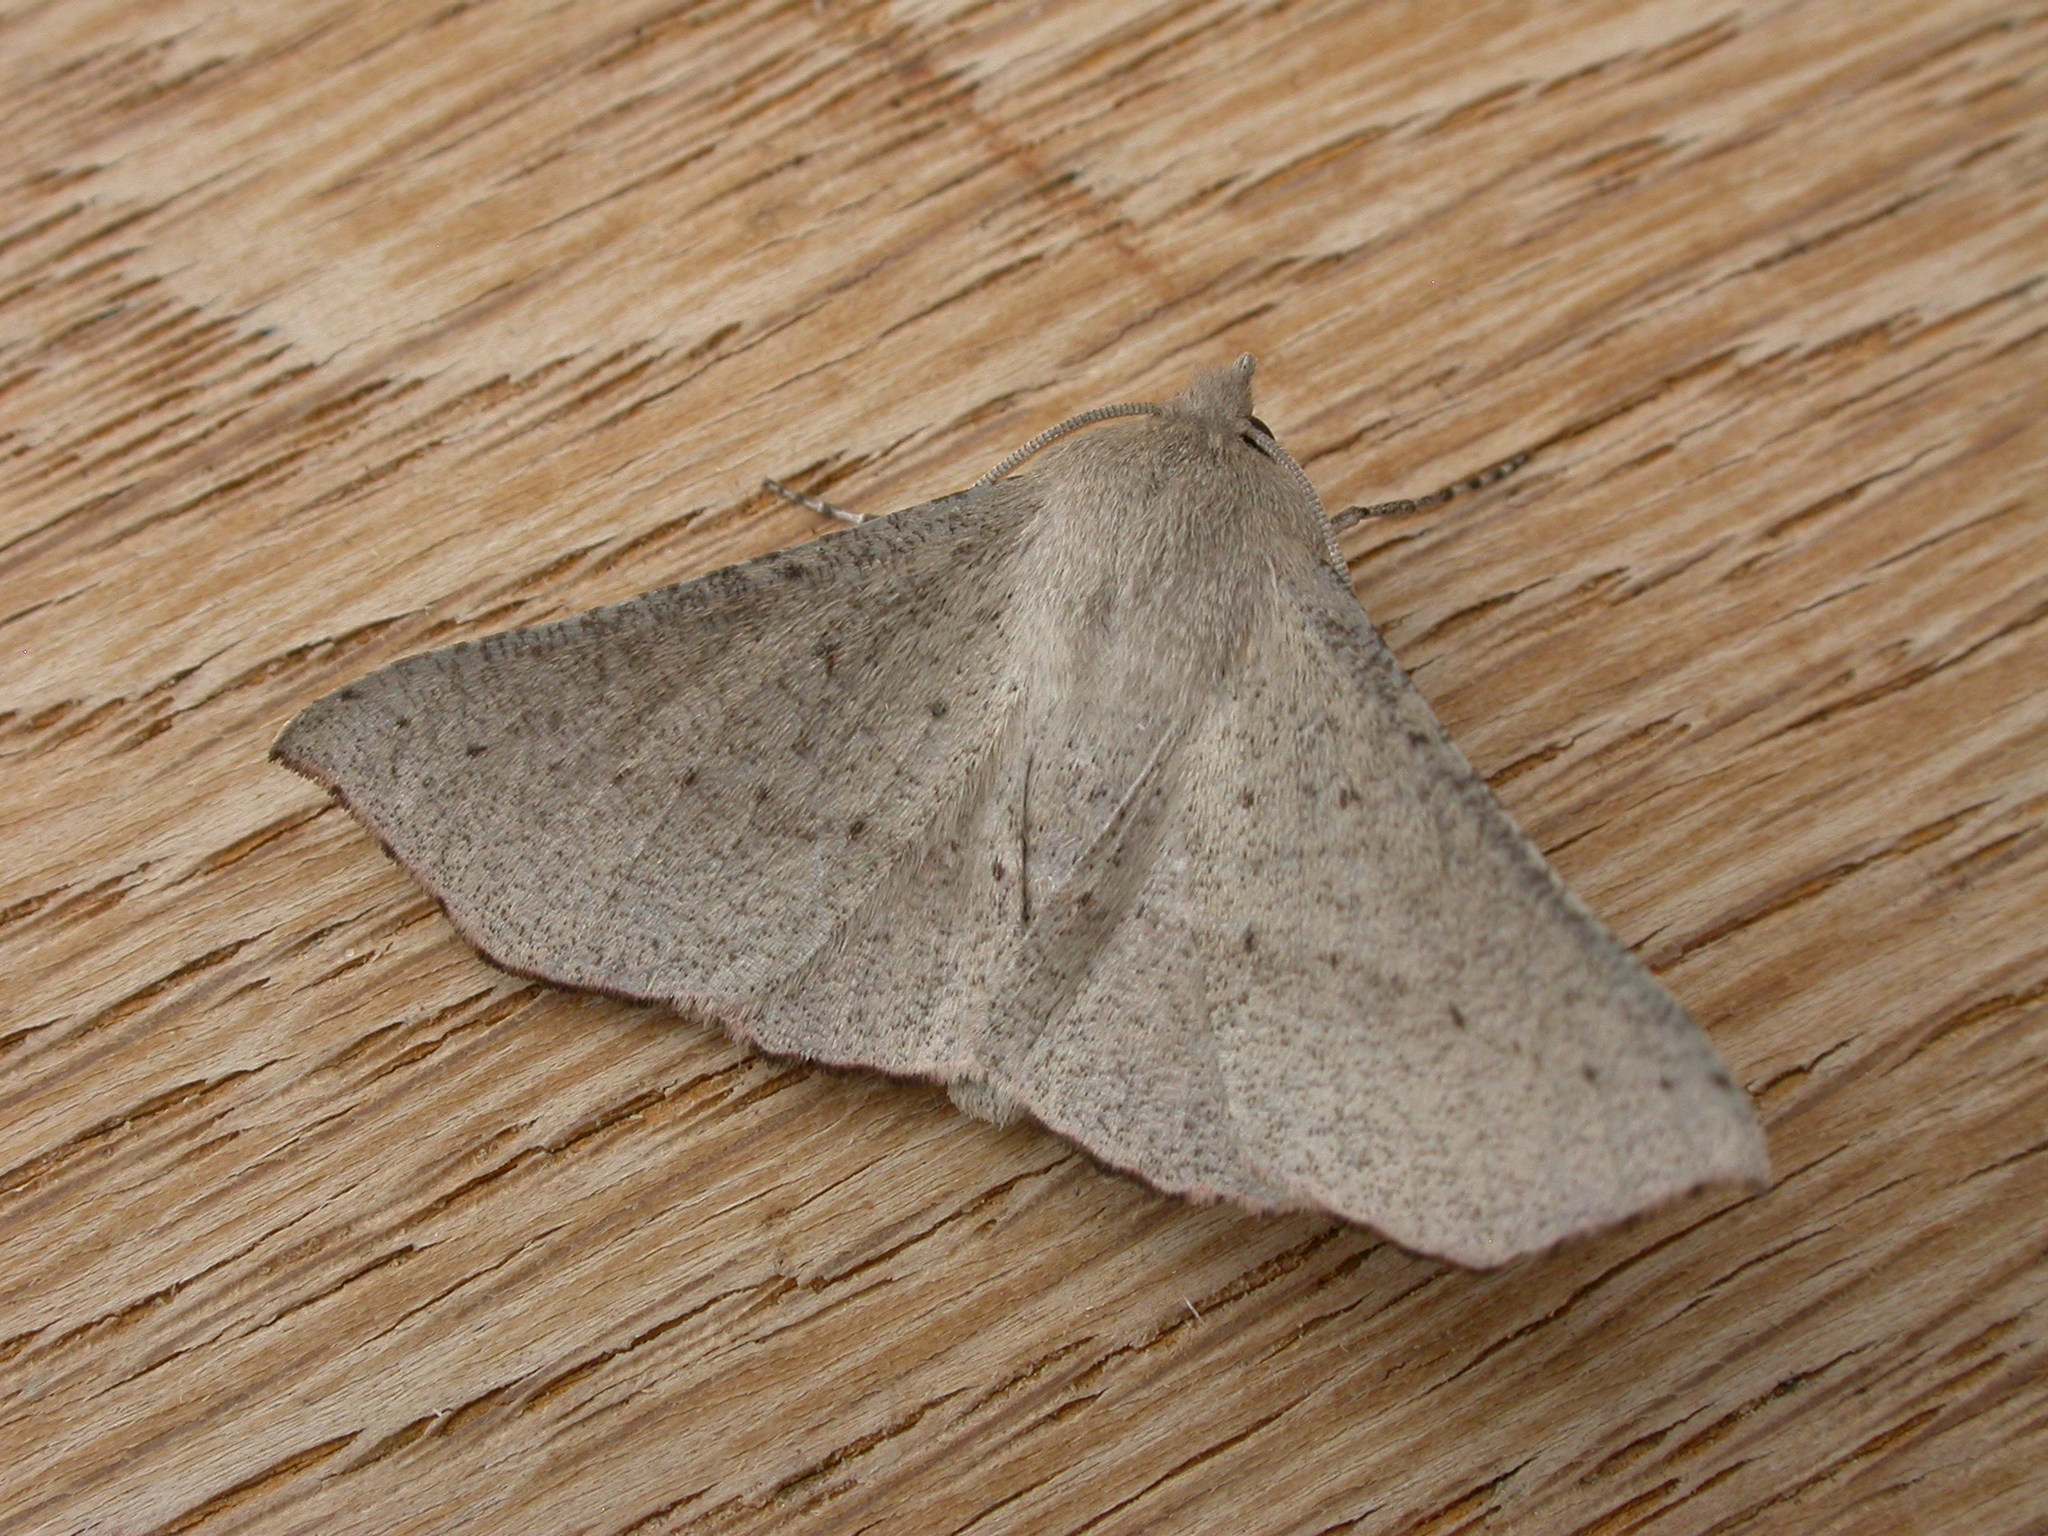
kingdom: Animalia
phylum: Arthropoda
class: Insecta
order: Lepidoptera
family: Geometridae
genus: Oenochroma
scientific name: Oenochroma subustaria
